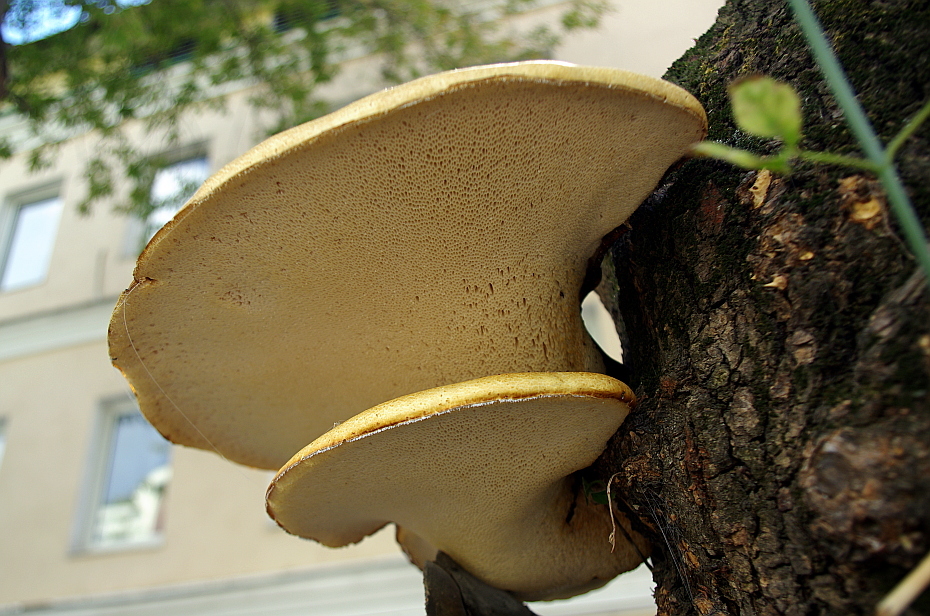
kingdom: Fungi
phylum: Basidiomycota
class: Agaricomycetes
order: Polyporales
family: Polyporaceae
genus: Cerioporus
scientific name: Cerioporus squamosus
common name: Dryad's saddle
